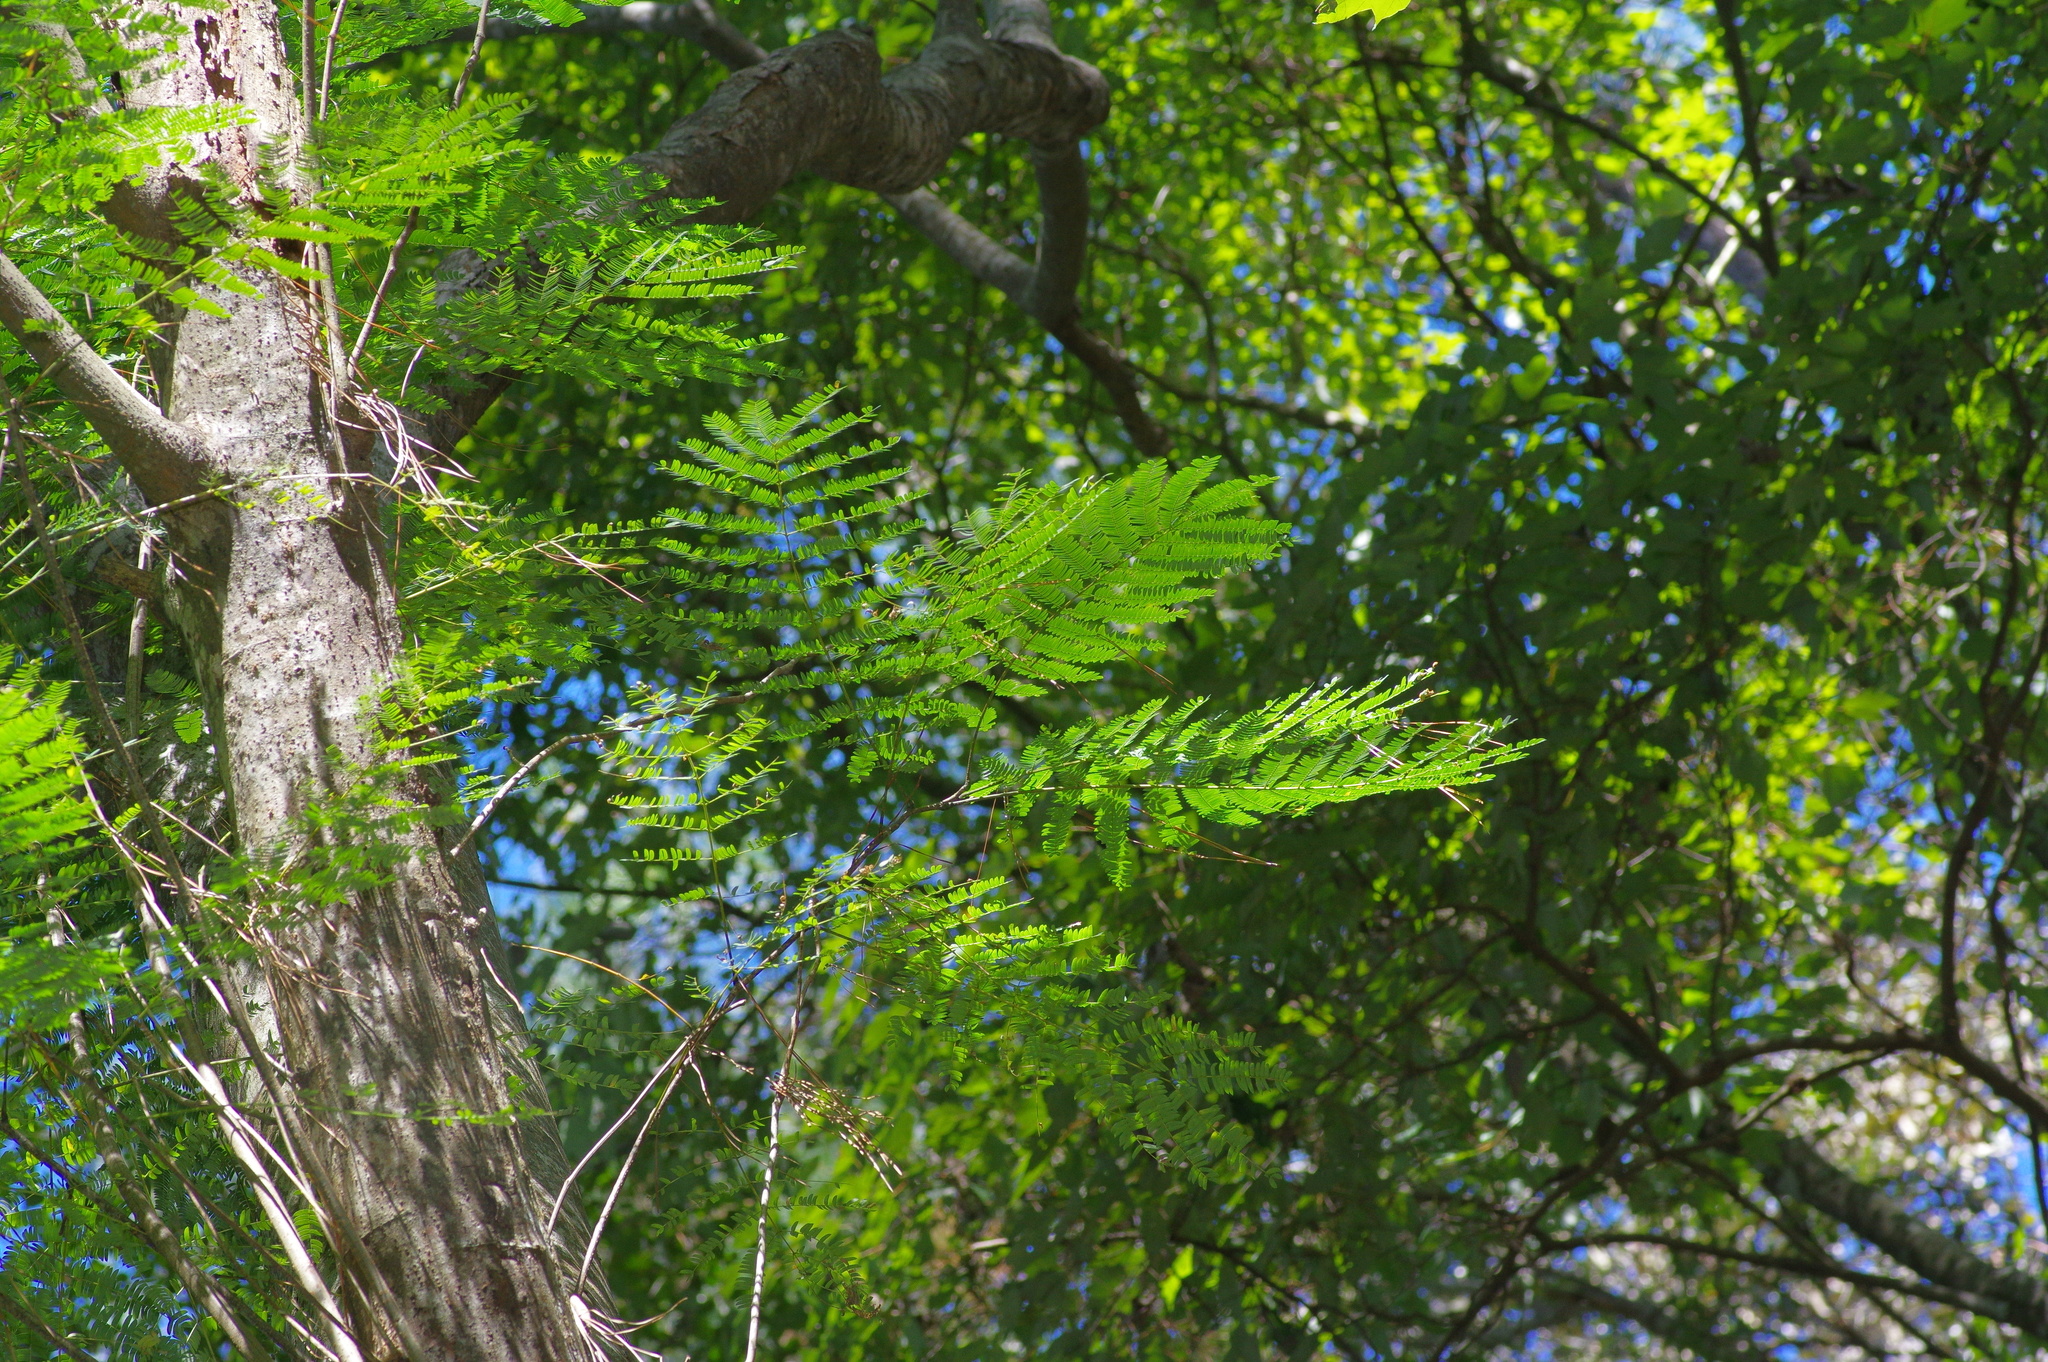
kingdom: Plantae
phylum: Tracheophyta
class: Magnoliopsida
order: Fabales
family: Fabaceae
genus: Albizia
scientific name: Albizia julibrissin
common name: Silktree
